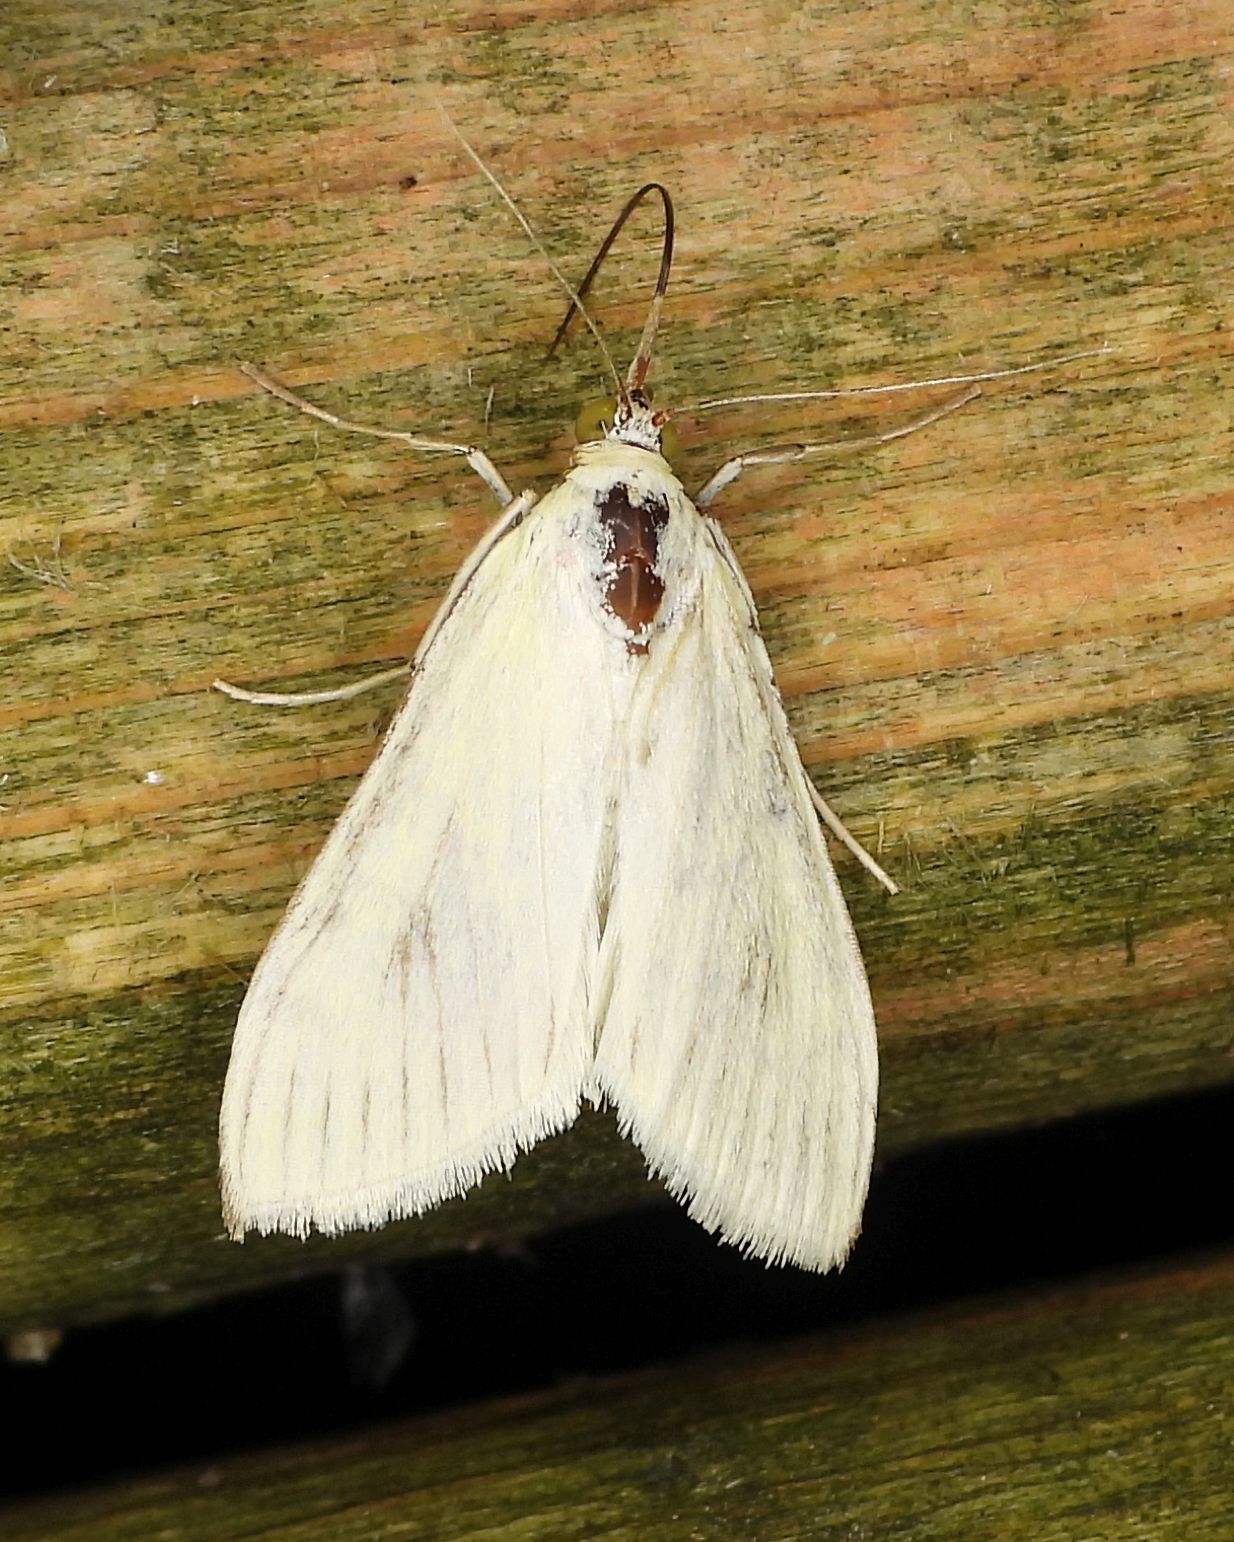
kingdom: Animalia
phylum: Arthropoda
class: Insecta
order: Lepidoptera
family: Crambidae
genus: Sitochroa
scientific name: Sitochroa palealis
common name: Greenish-yellow sitochroa moth
